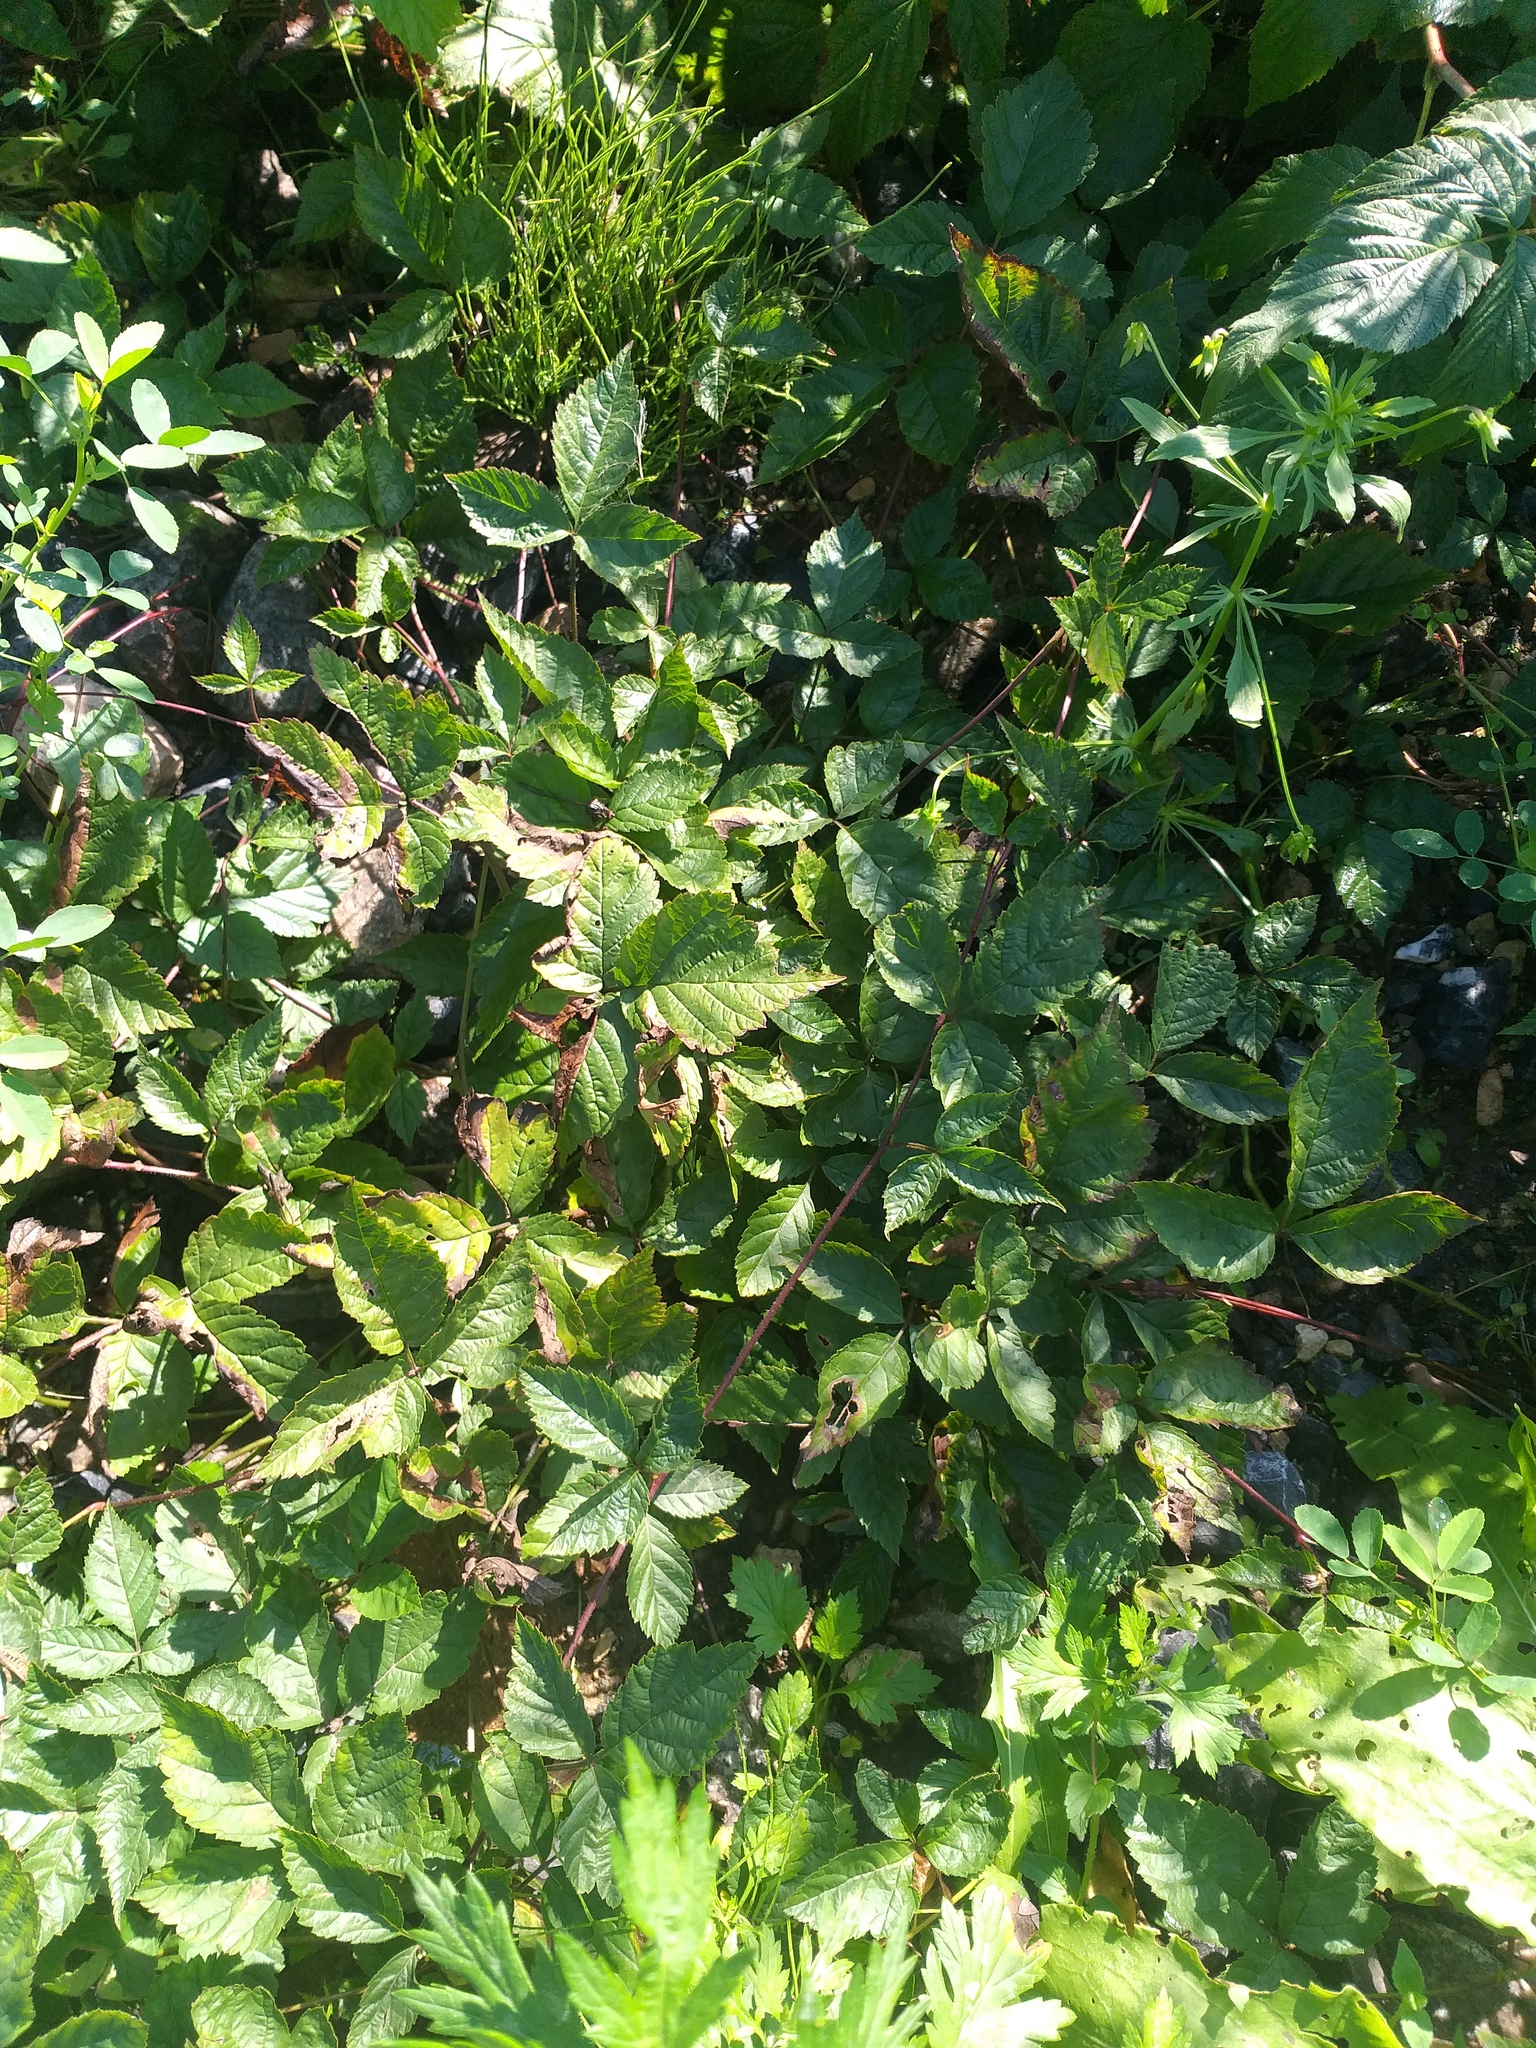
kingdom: Plantae
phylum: Tracheophyta
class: Magnoliopsida
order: Rosales
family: Rosaceae
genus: Rubus
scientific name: Rubus saxatilis
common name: Stone bramble
